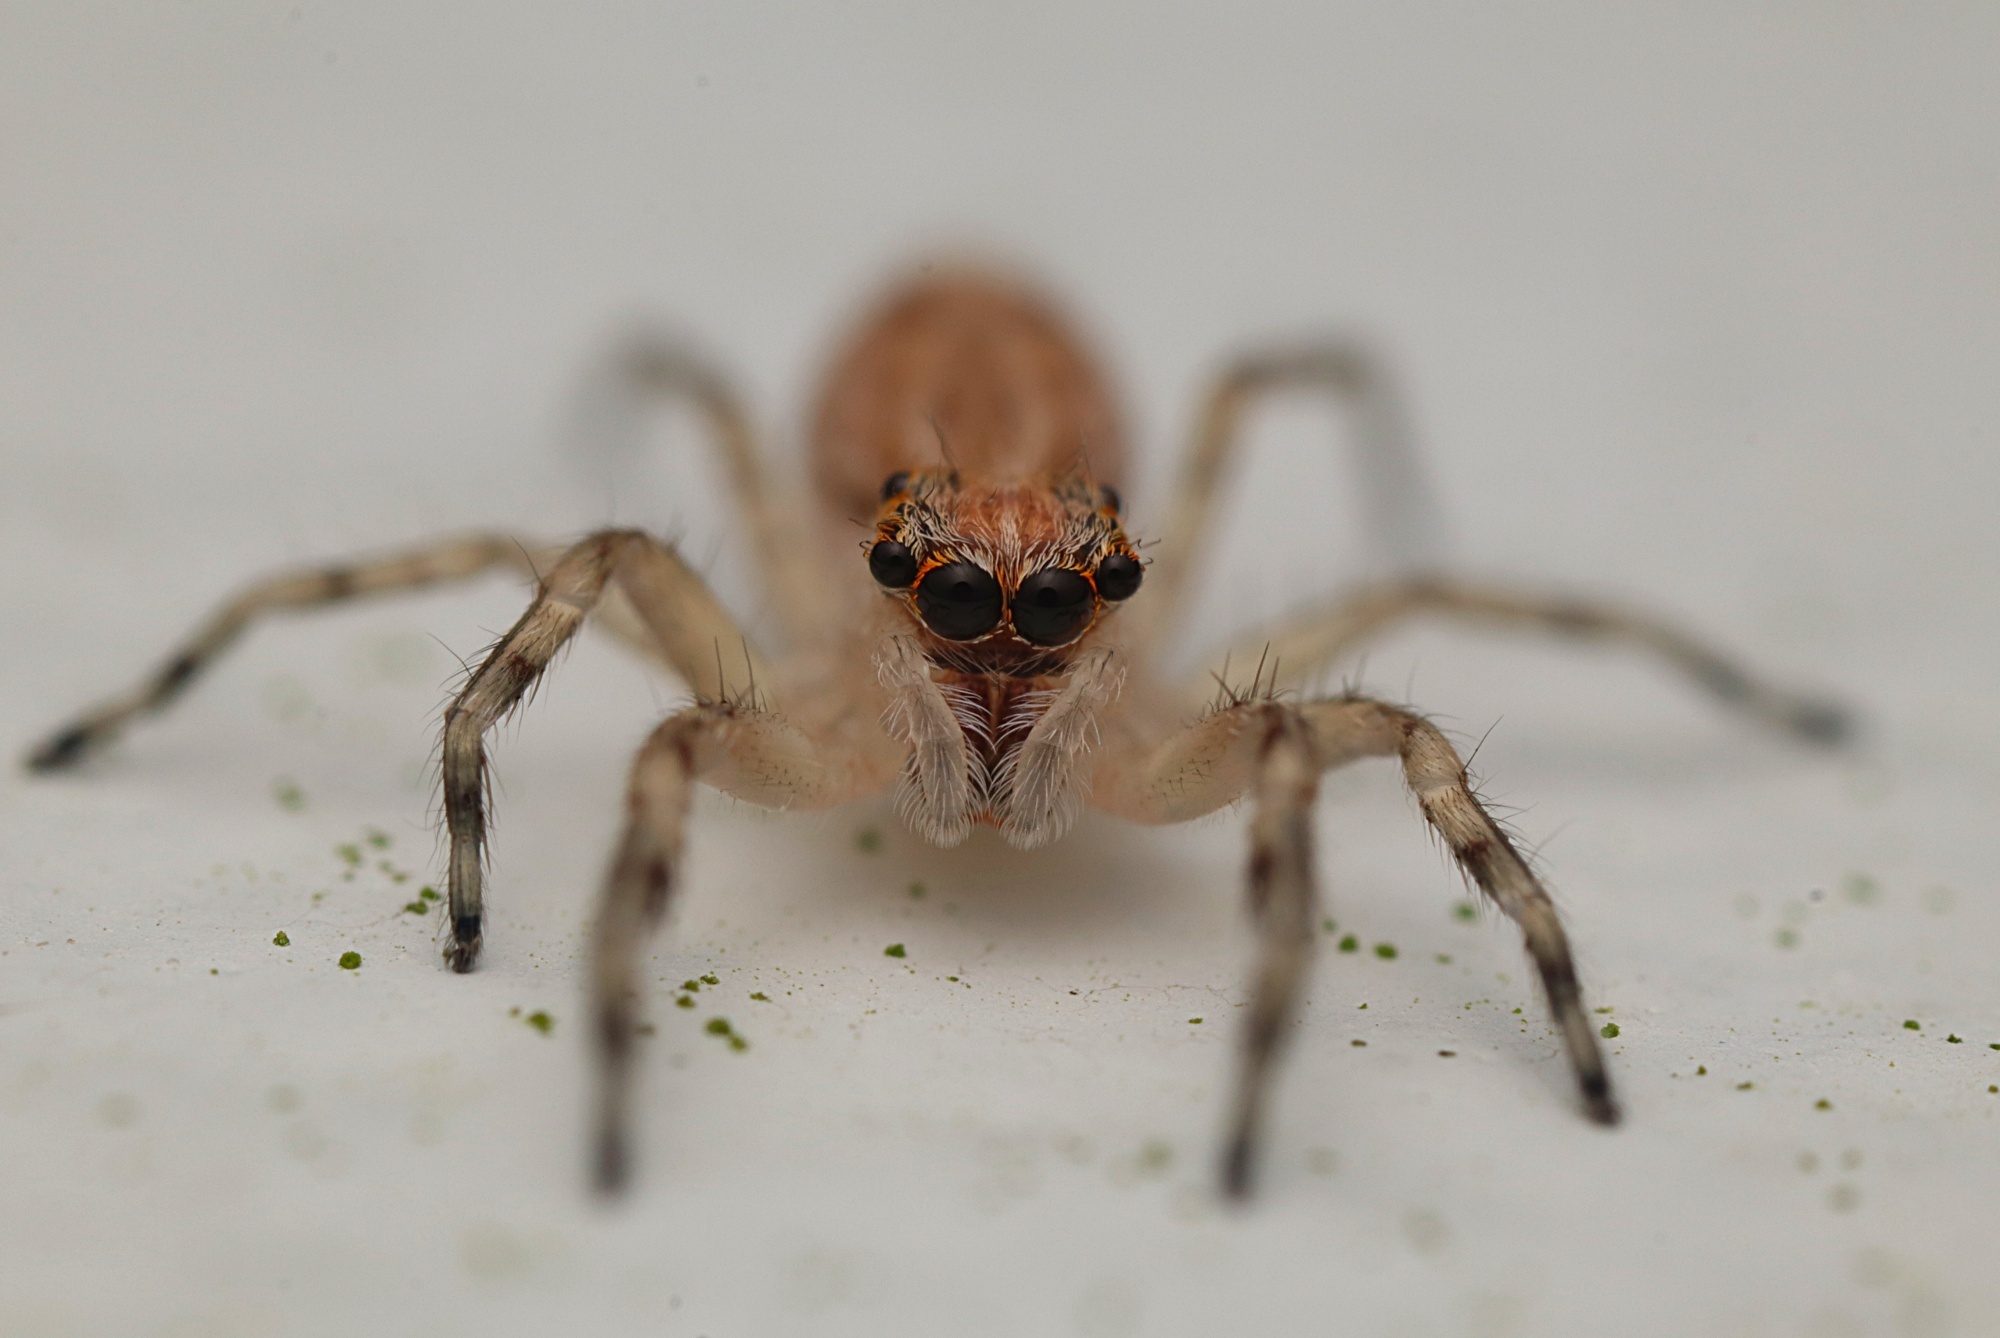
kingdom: Animalia
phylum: Arthropoda
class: Arachnida
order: Araneae
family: Salticidae
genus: Helpis
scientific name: Helpis minitabunda
